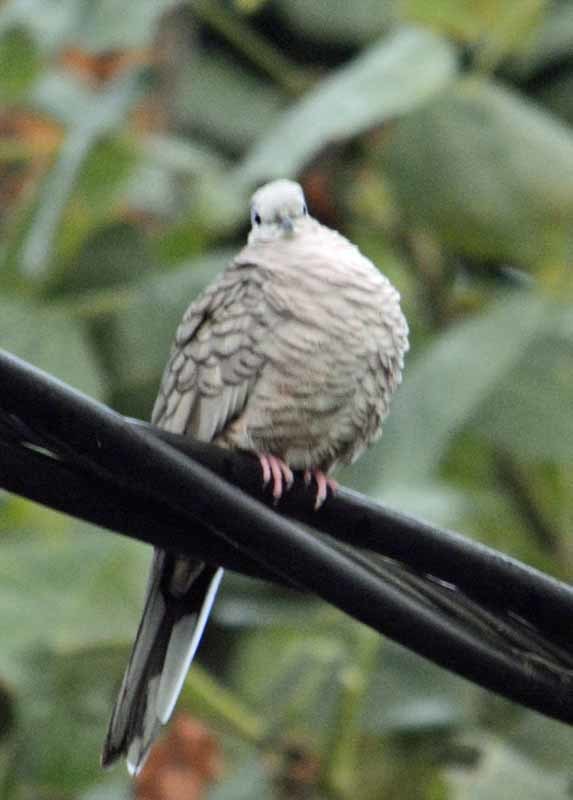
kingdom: Animalia
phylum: Chordata
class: Aves
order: Columbiformes
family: Columbidae
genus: Columbina
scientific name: Columbina inca
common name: Inca dove
